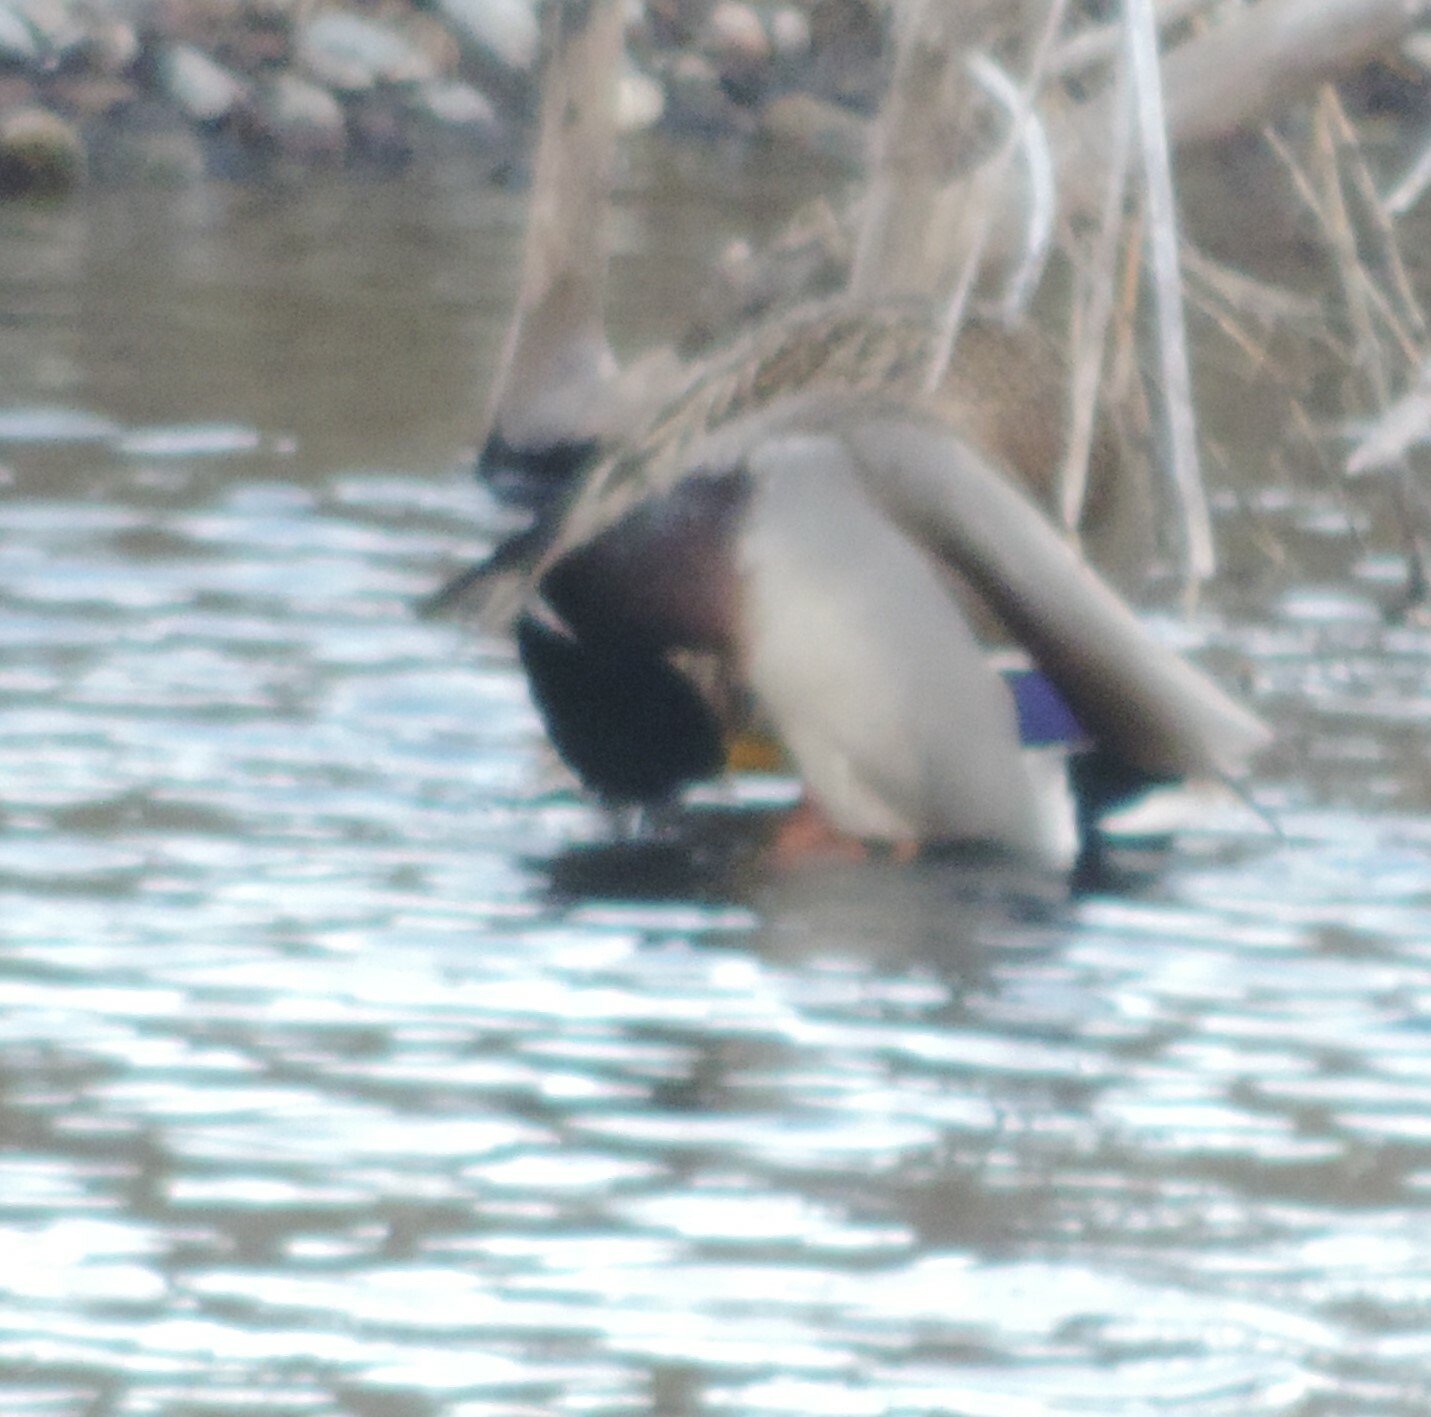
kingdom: Animalia
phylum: Chordata
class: Aves
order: Anseriformes
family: Anatidae
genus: Anas
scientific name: Anas platyrhynchos
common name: Mallard
